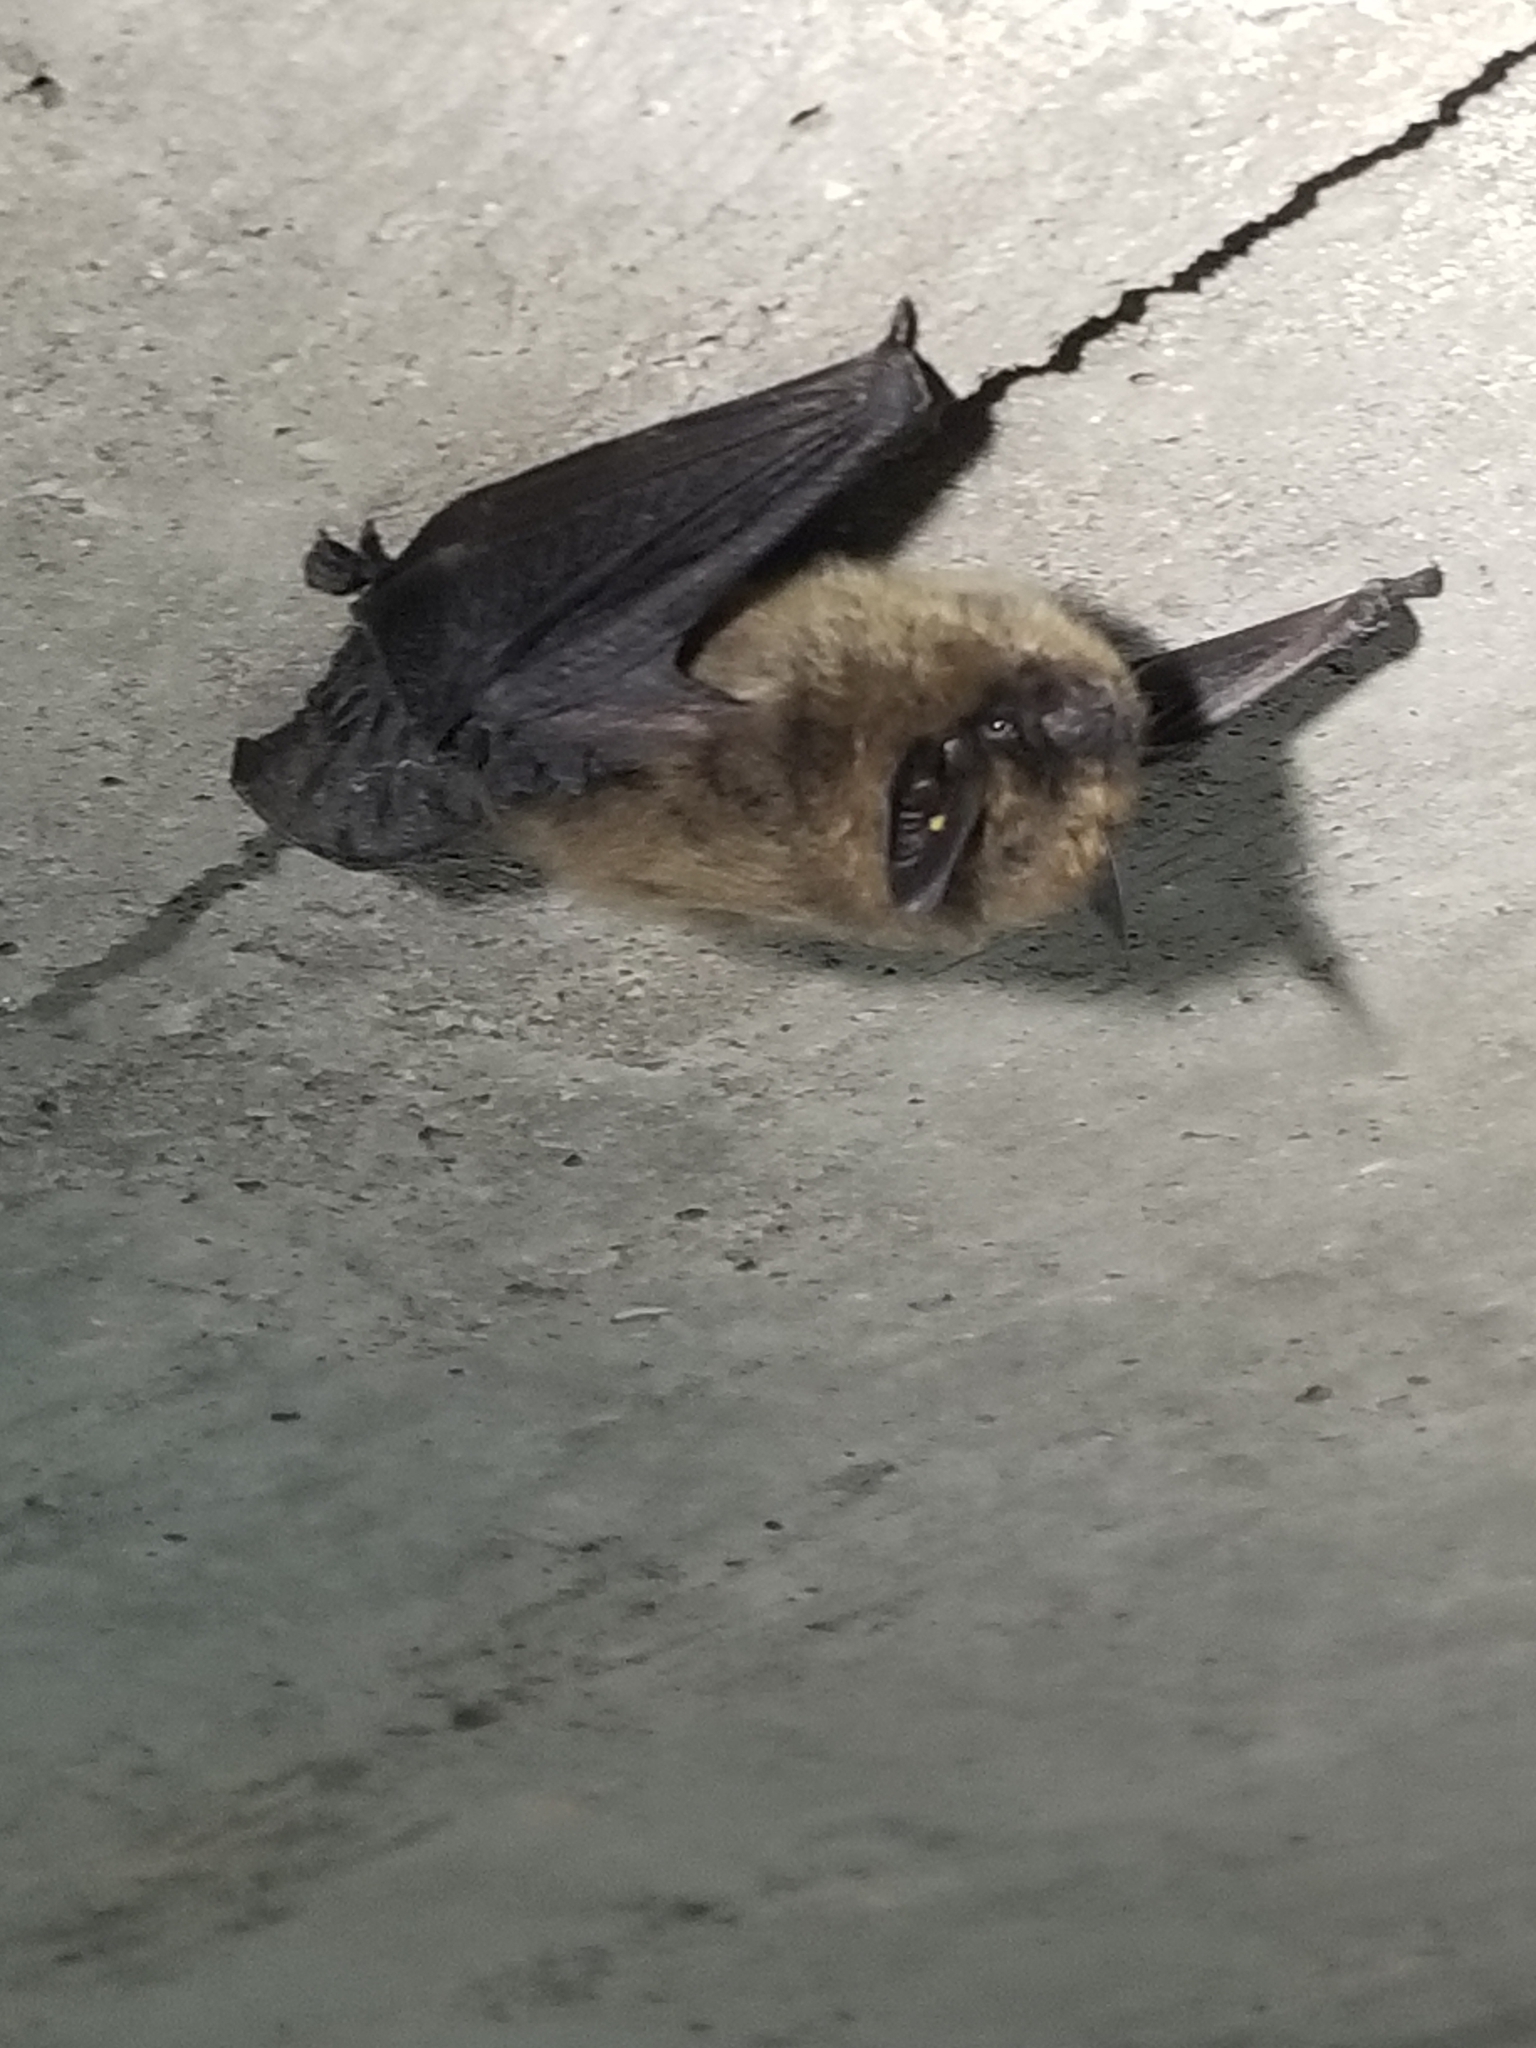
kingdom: Animalia
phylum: Chordata
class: Mammalia
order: Chiroptera
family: Vespertilionidae
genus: Myotis
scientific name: Myotis leibii
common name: Eastern small-footed myotis
